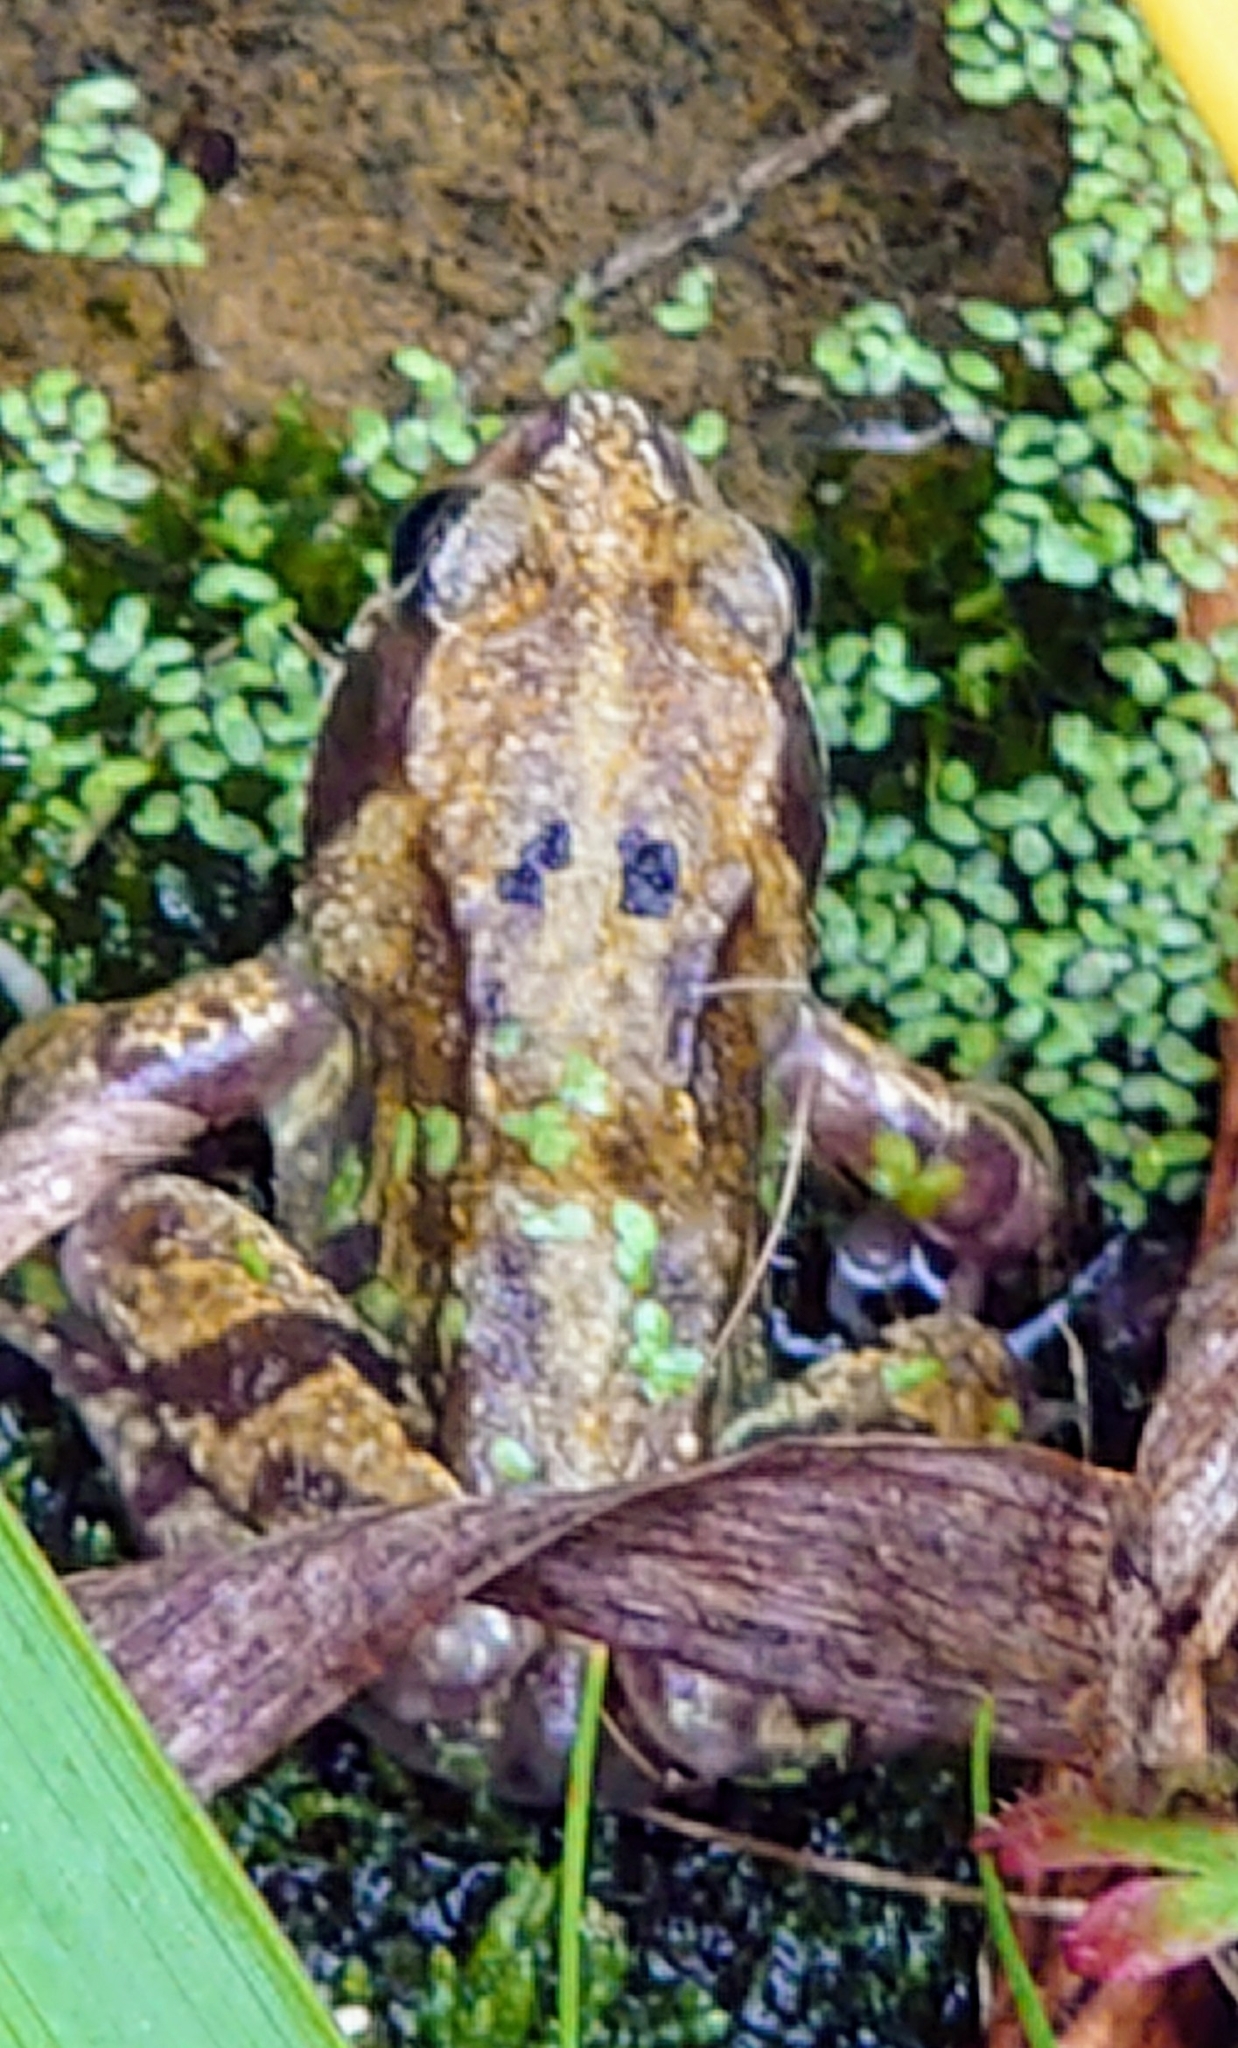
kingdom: Animalia
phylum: Chordata
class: Amphibia
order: Anura
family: Ranidae
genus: Rana
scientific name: Rana temporaria
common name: Common frog
